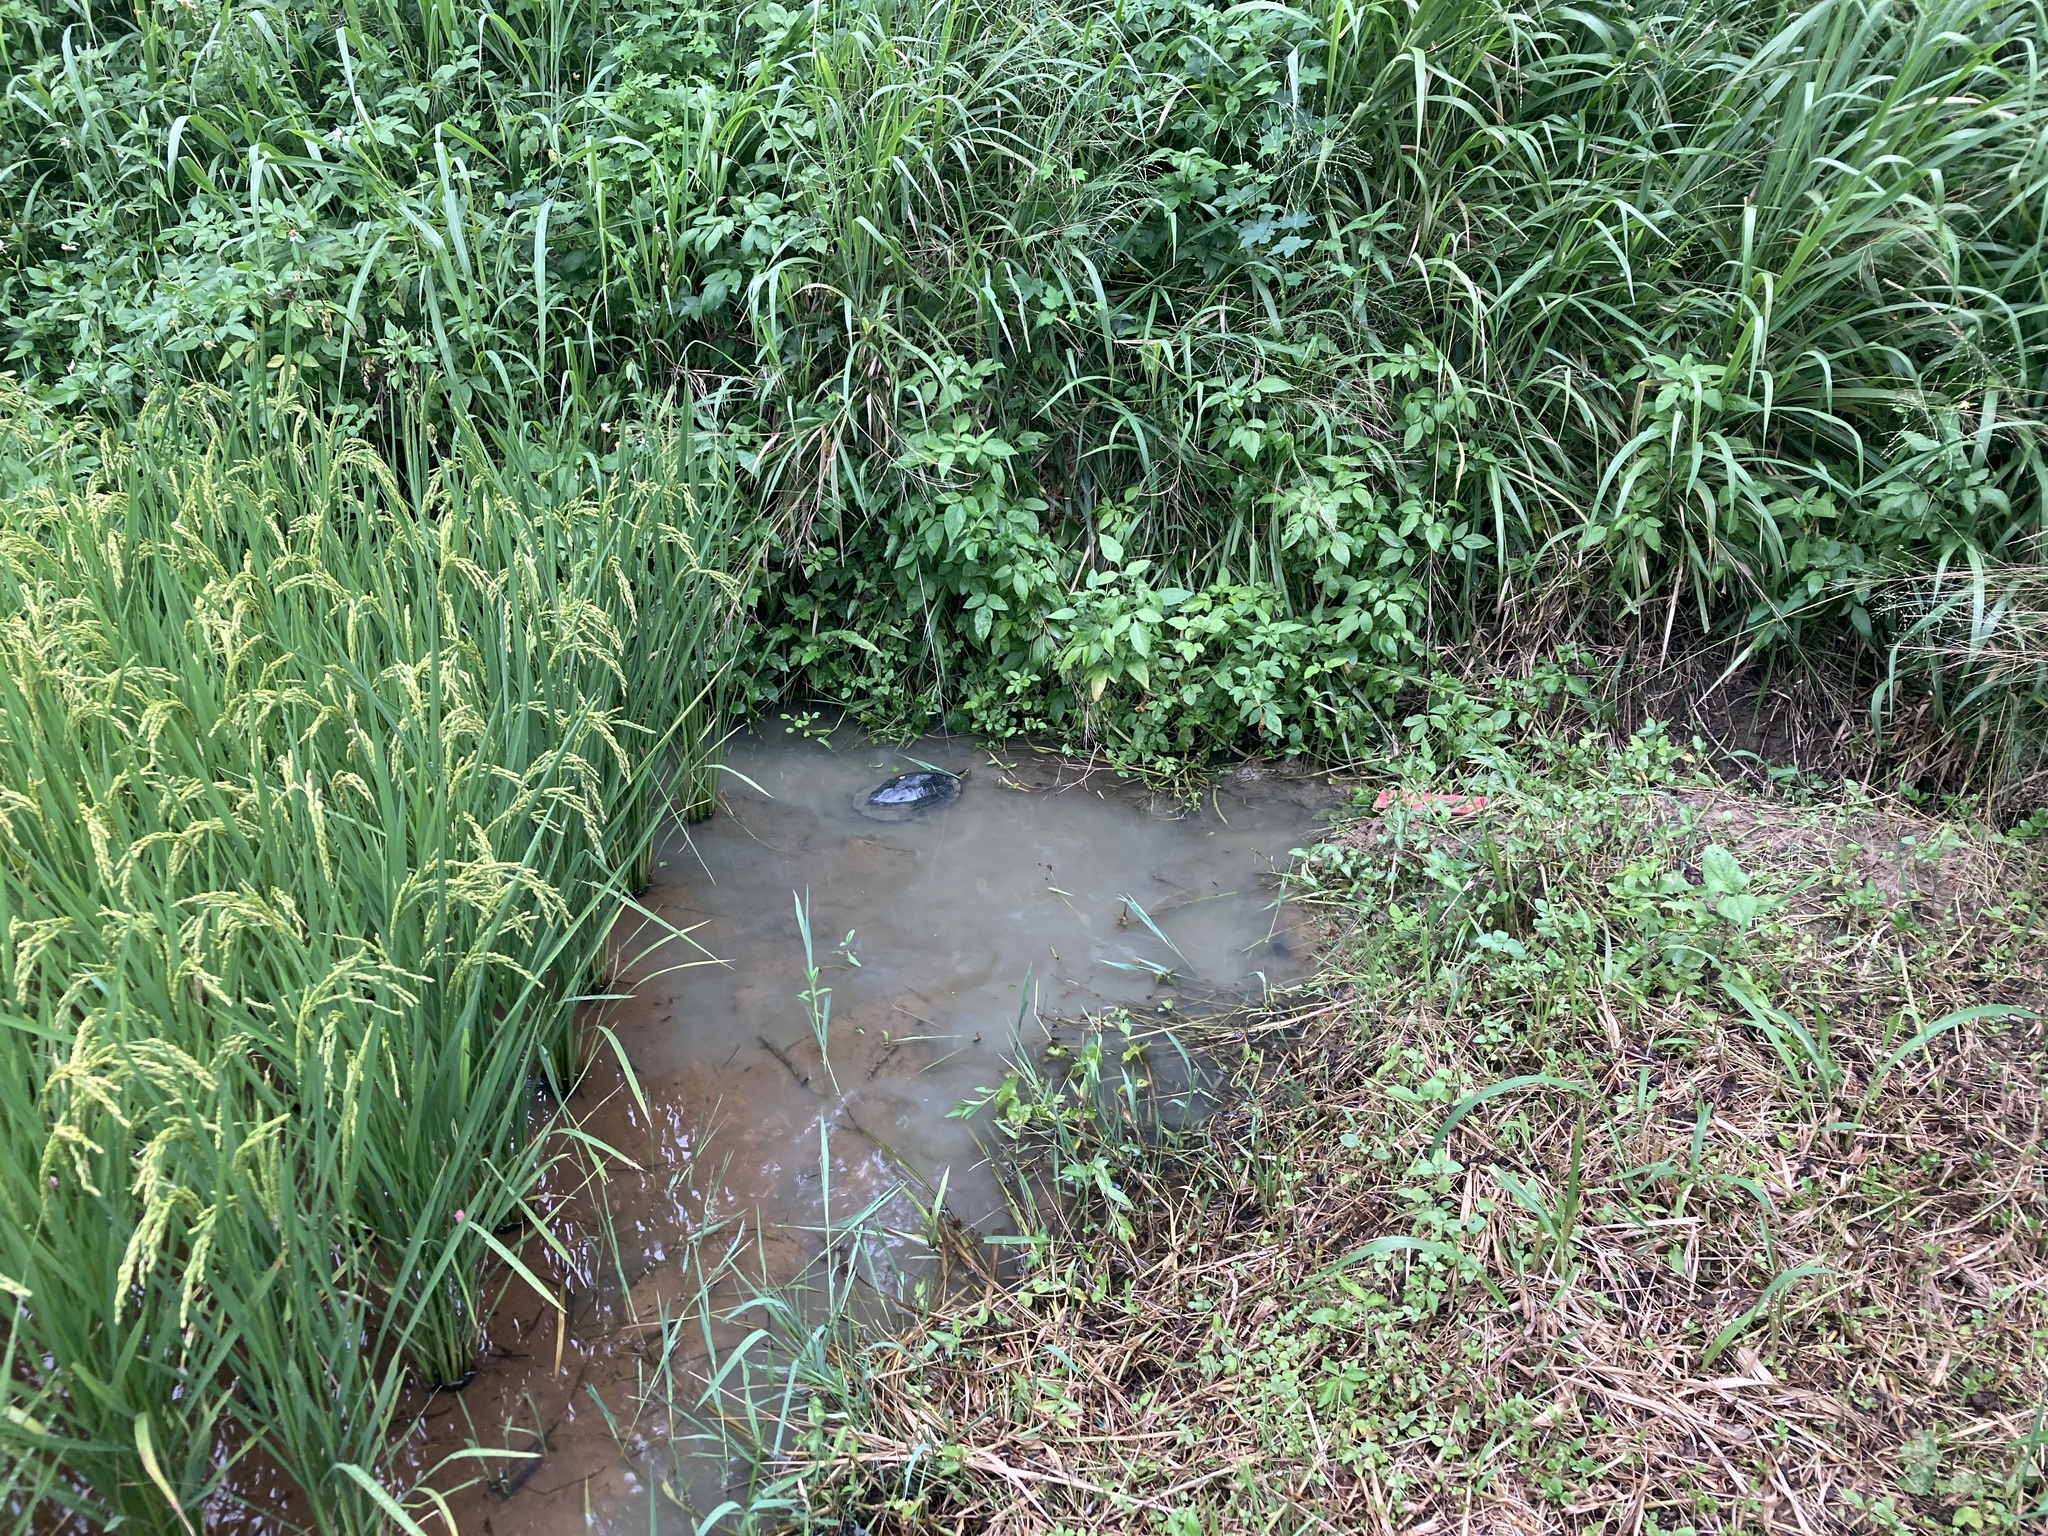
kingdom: Animalia
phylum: Chordata
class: Testudines
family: Geoemydidae
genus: Mauremys
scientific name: Mauremys sinensis
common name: Chinese stripe-necked turtle
